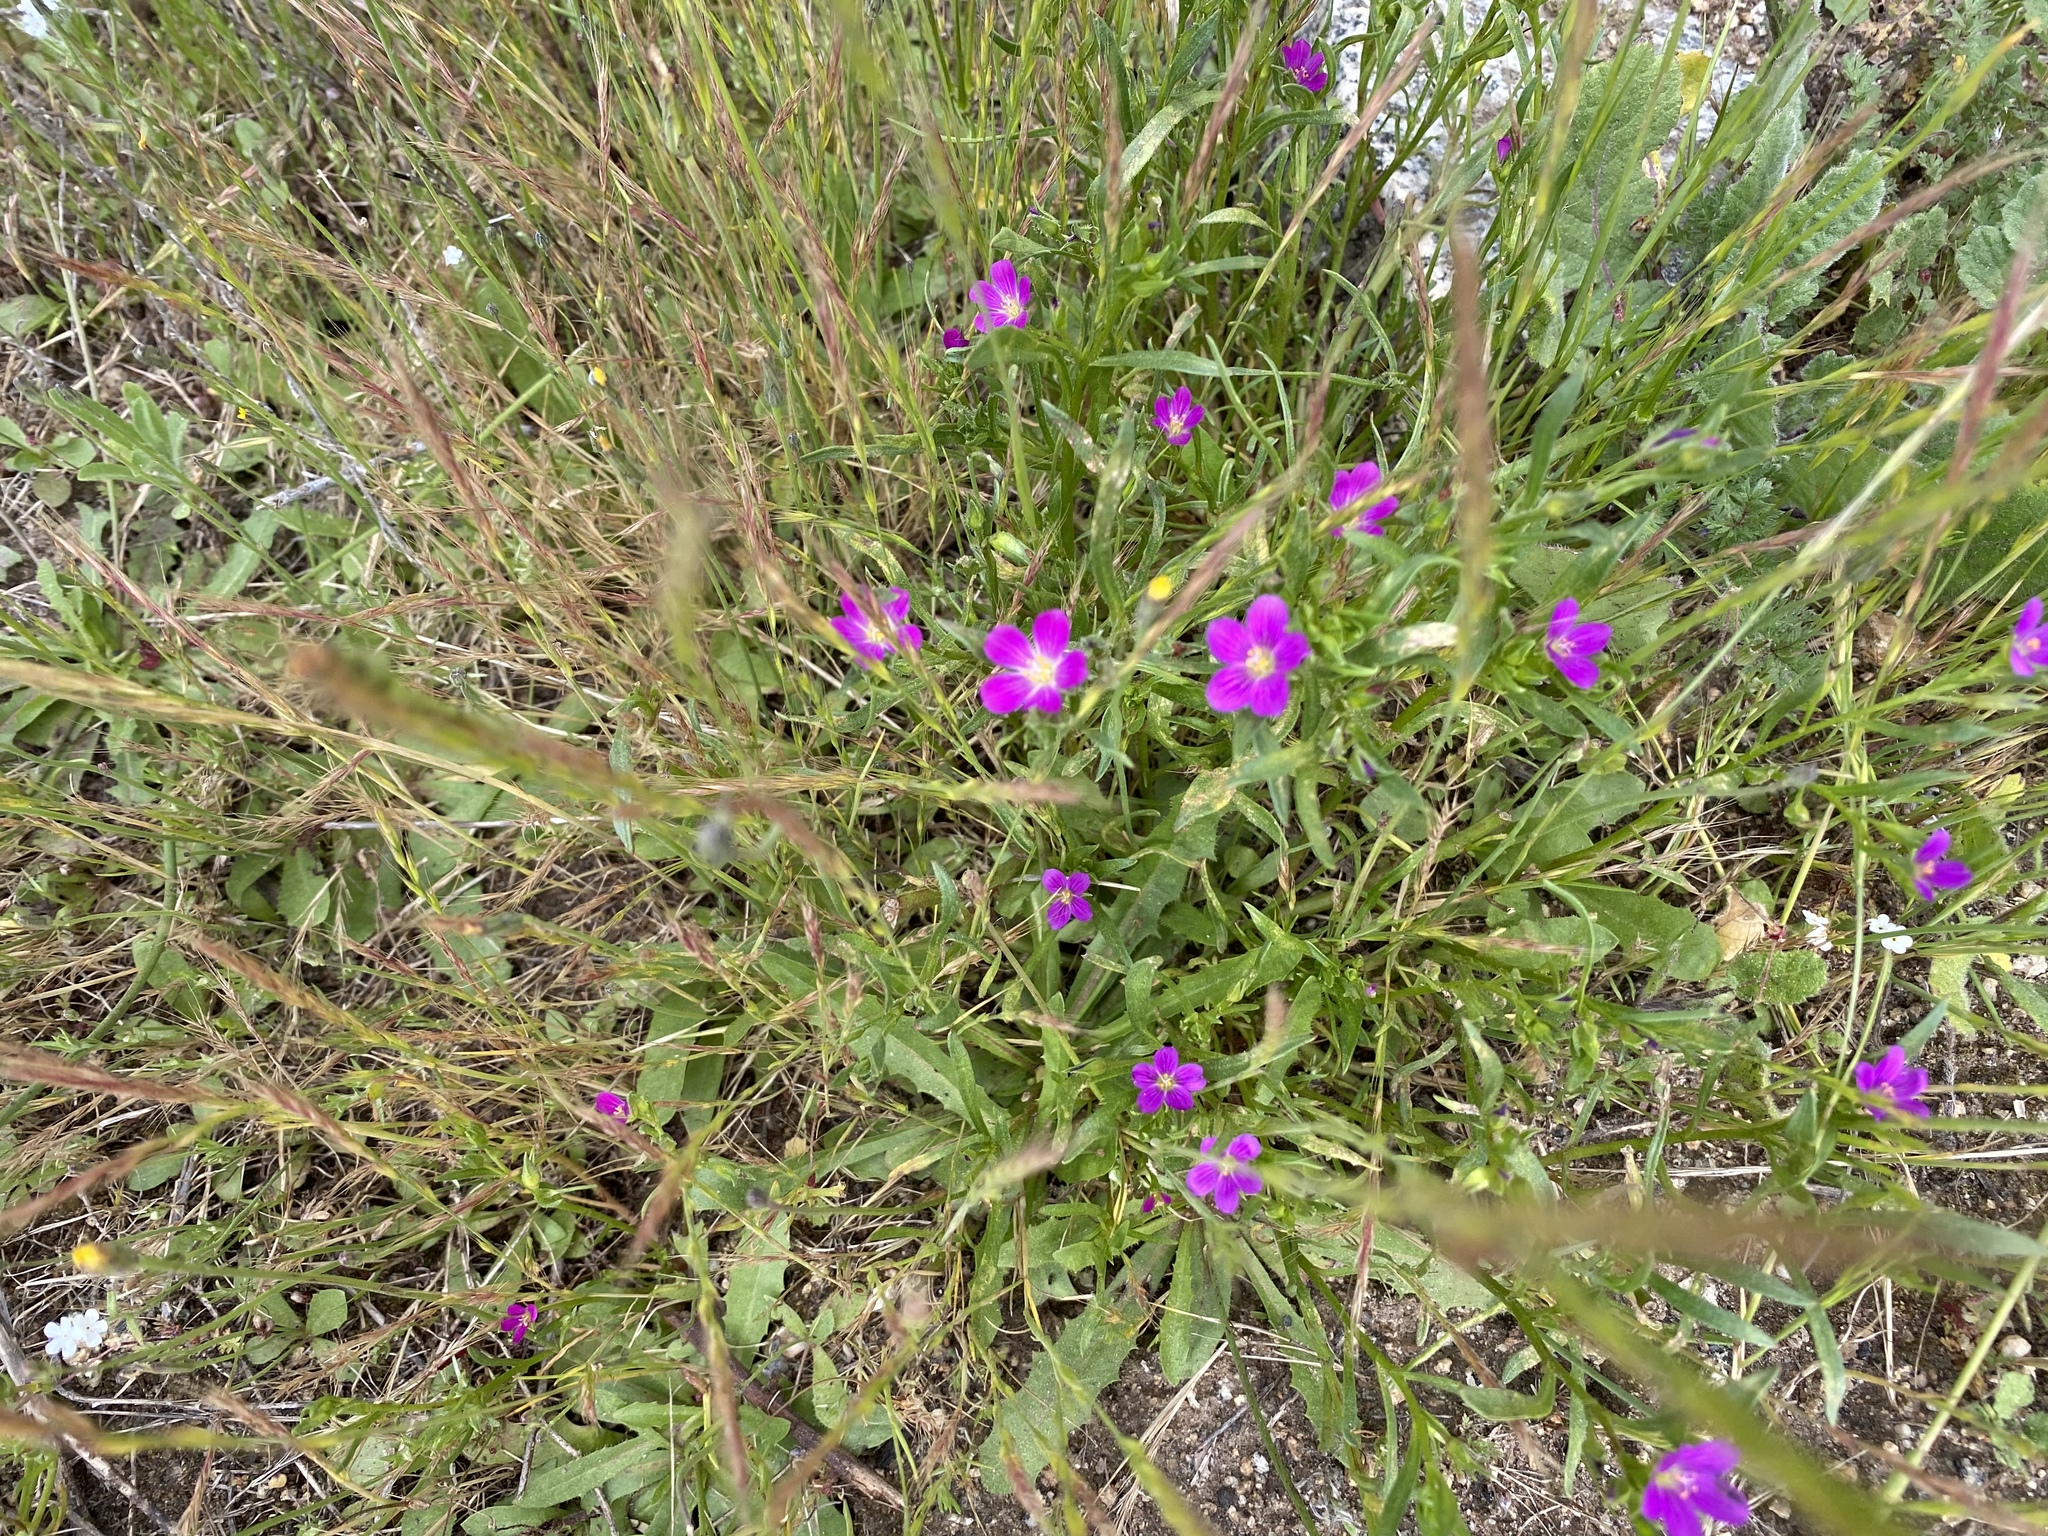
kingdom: Plantae
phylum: Tracheophyta
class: Magnoliopsida
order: Caryophyllales
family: Montiaceae
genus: Calandrinia
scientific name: Calandrinia menziesii
